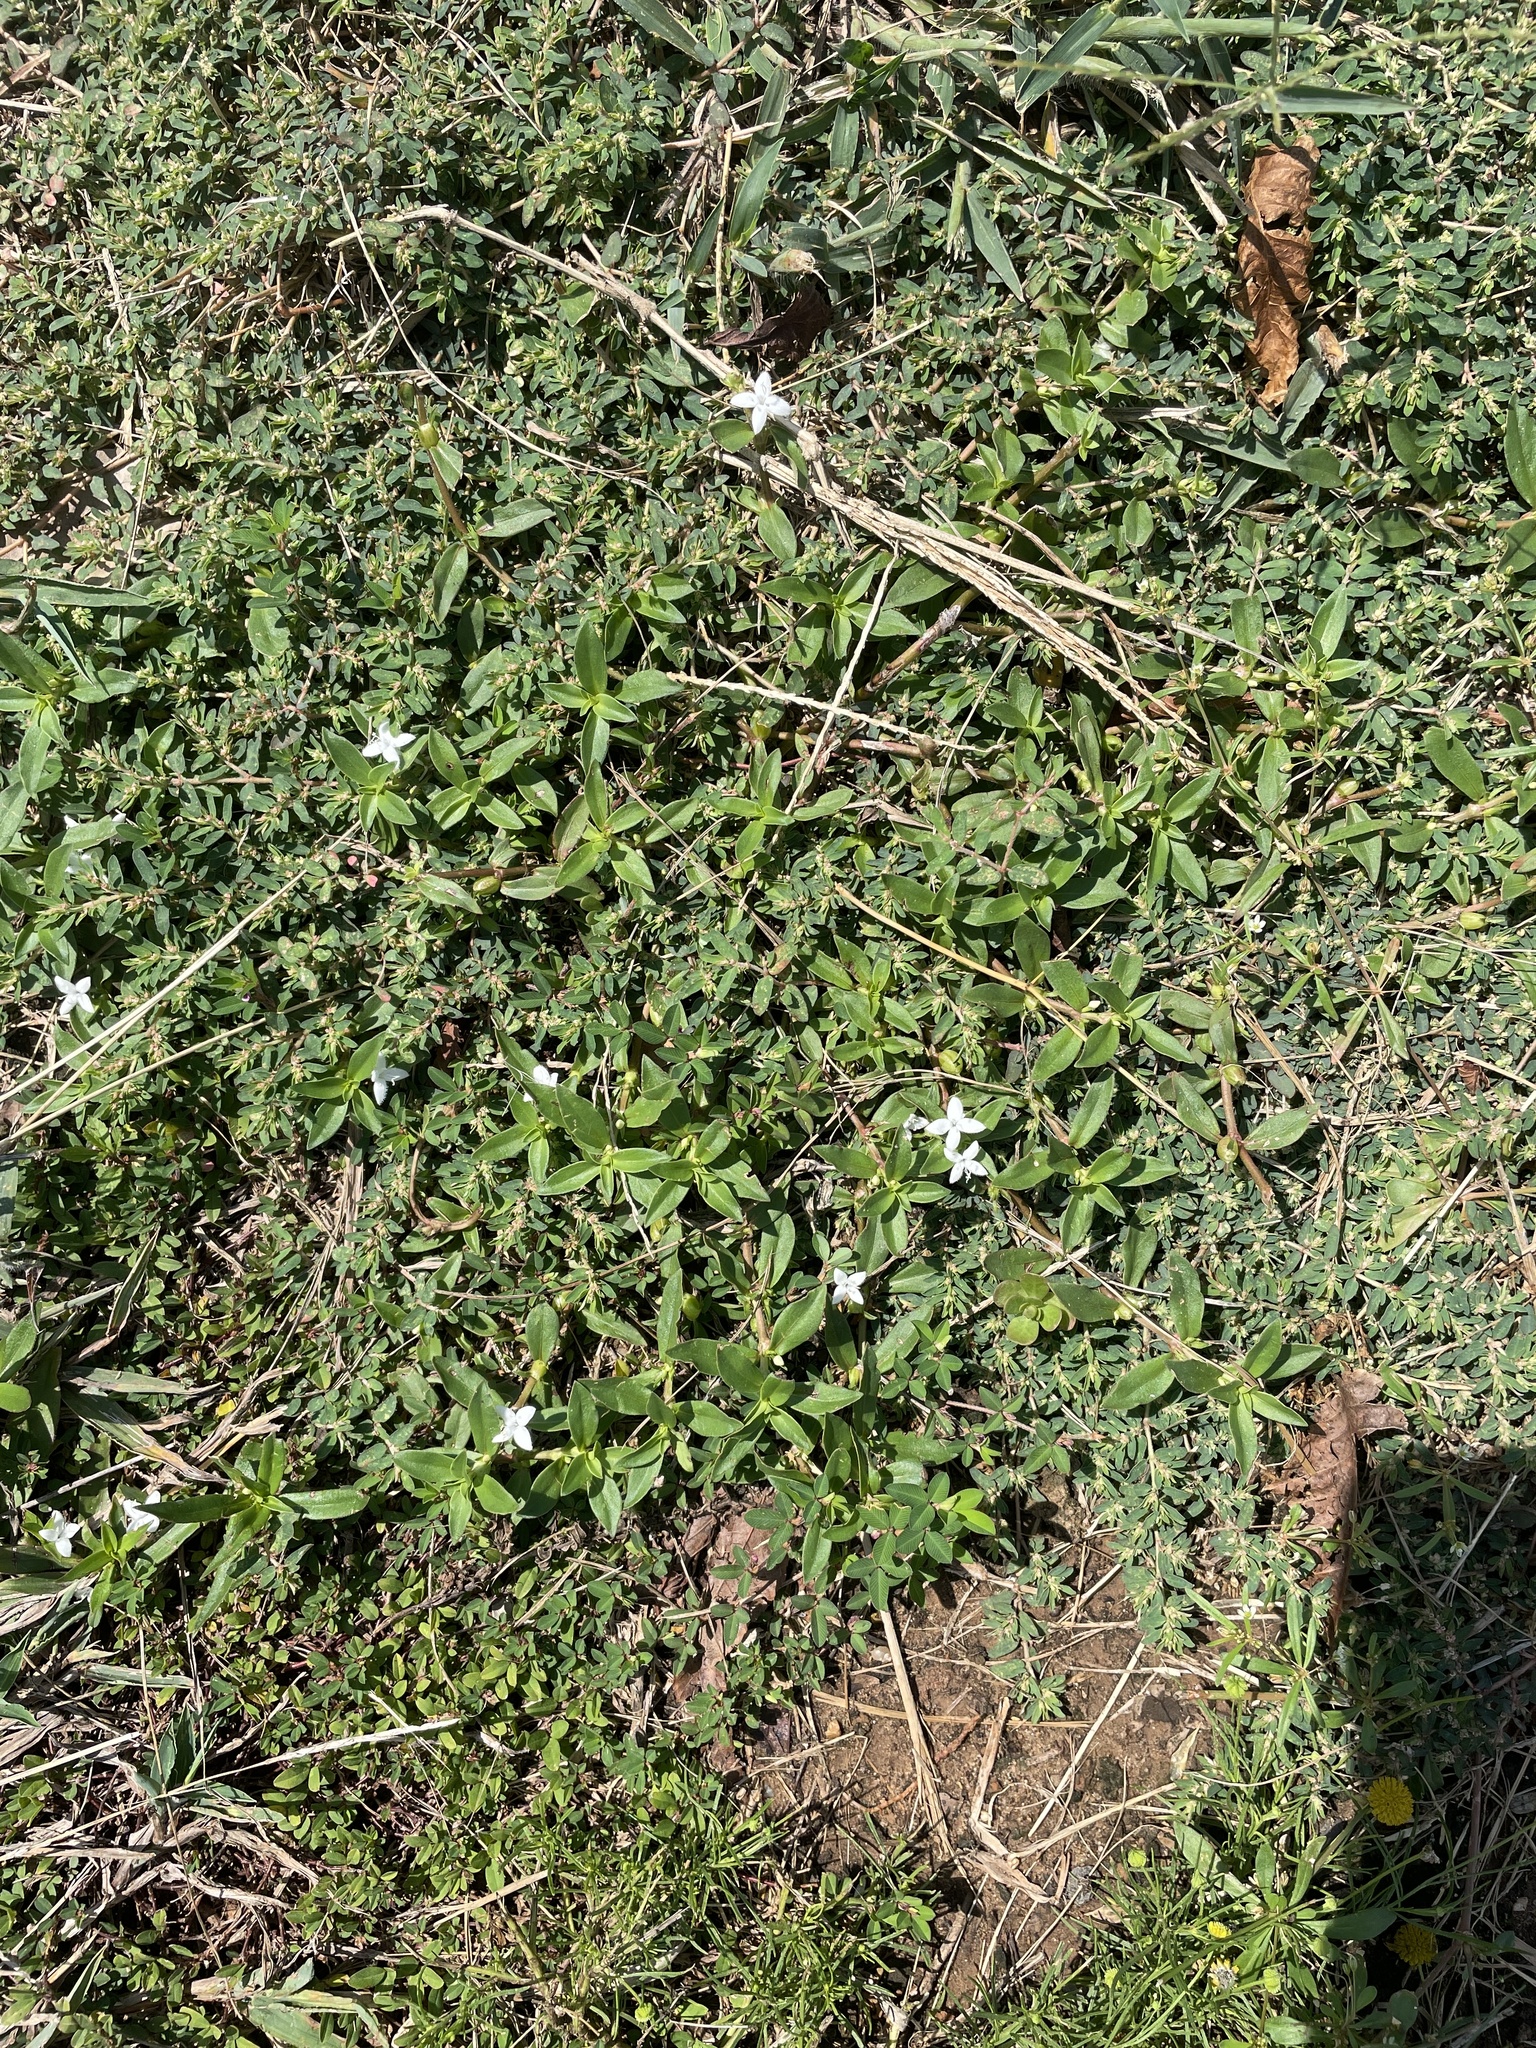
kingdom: Plantae
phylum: Tracheophyta
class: Magnoliopsida
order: Gentianales
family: Rubiaceae
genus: Diodia
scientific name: Diodia virginiana
